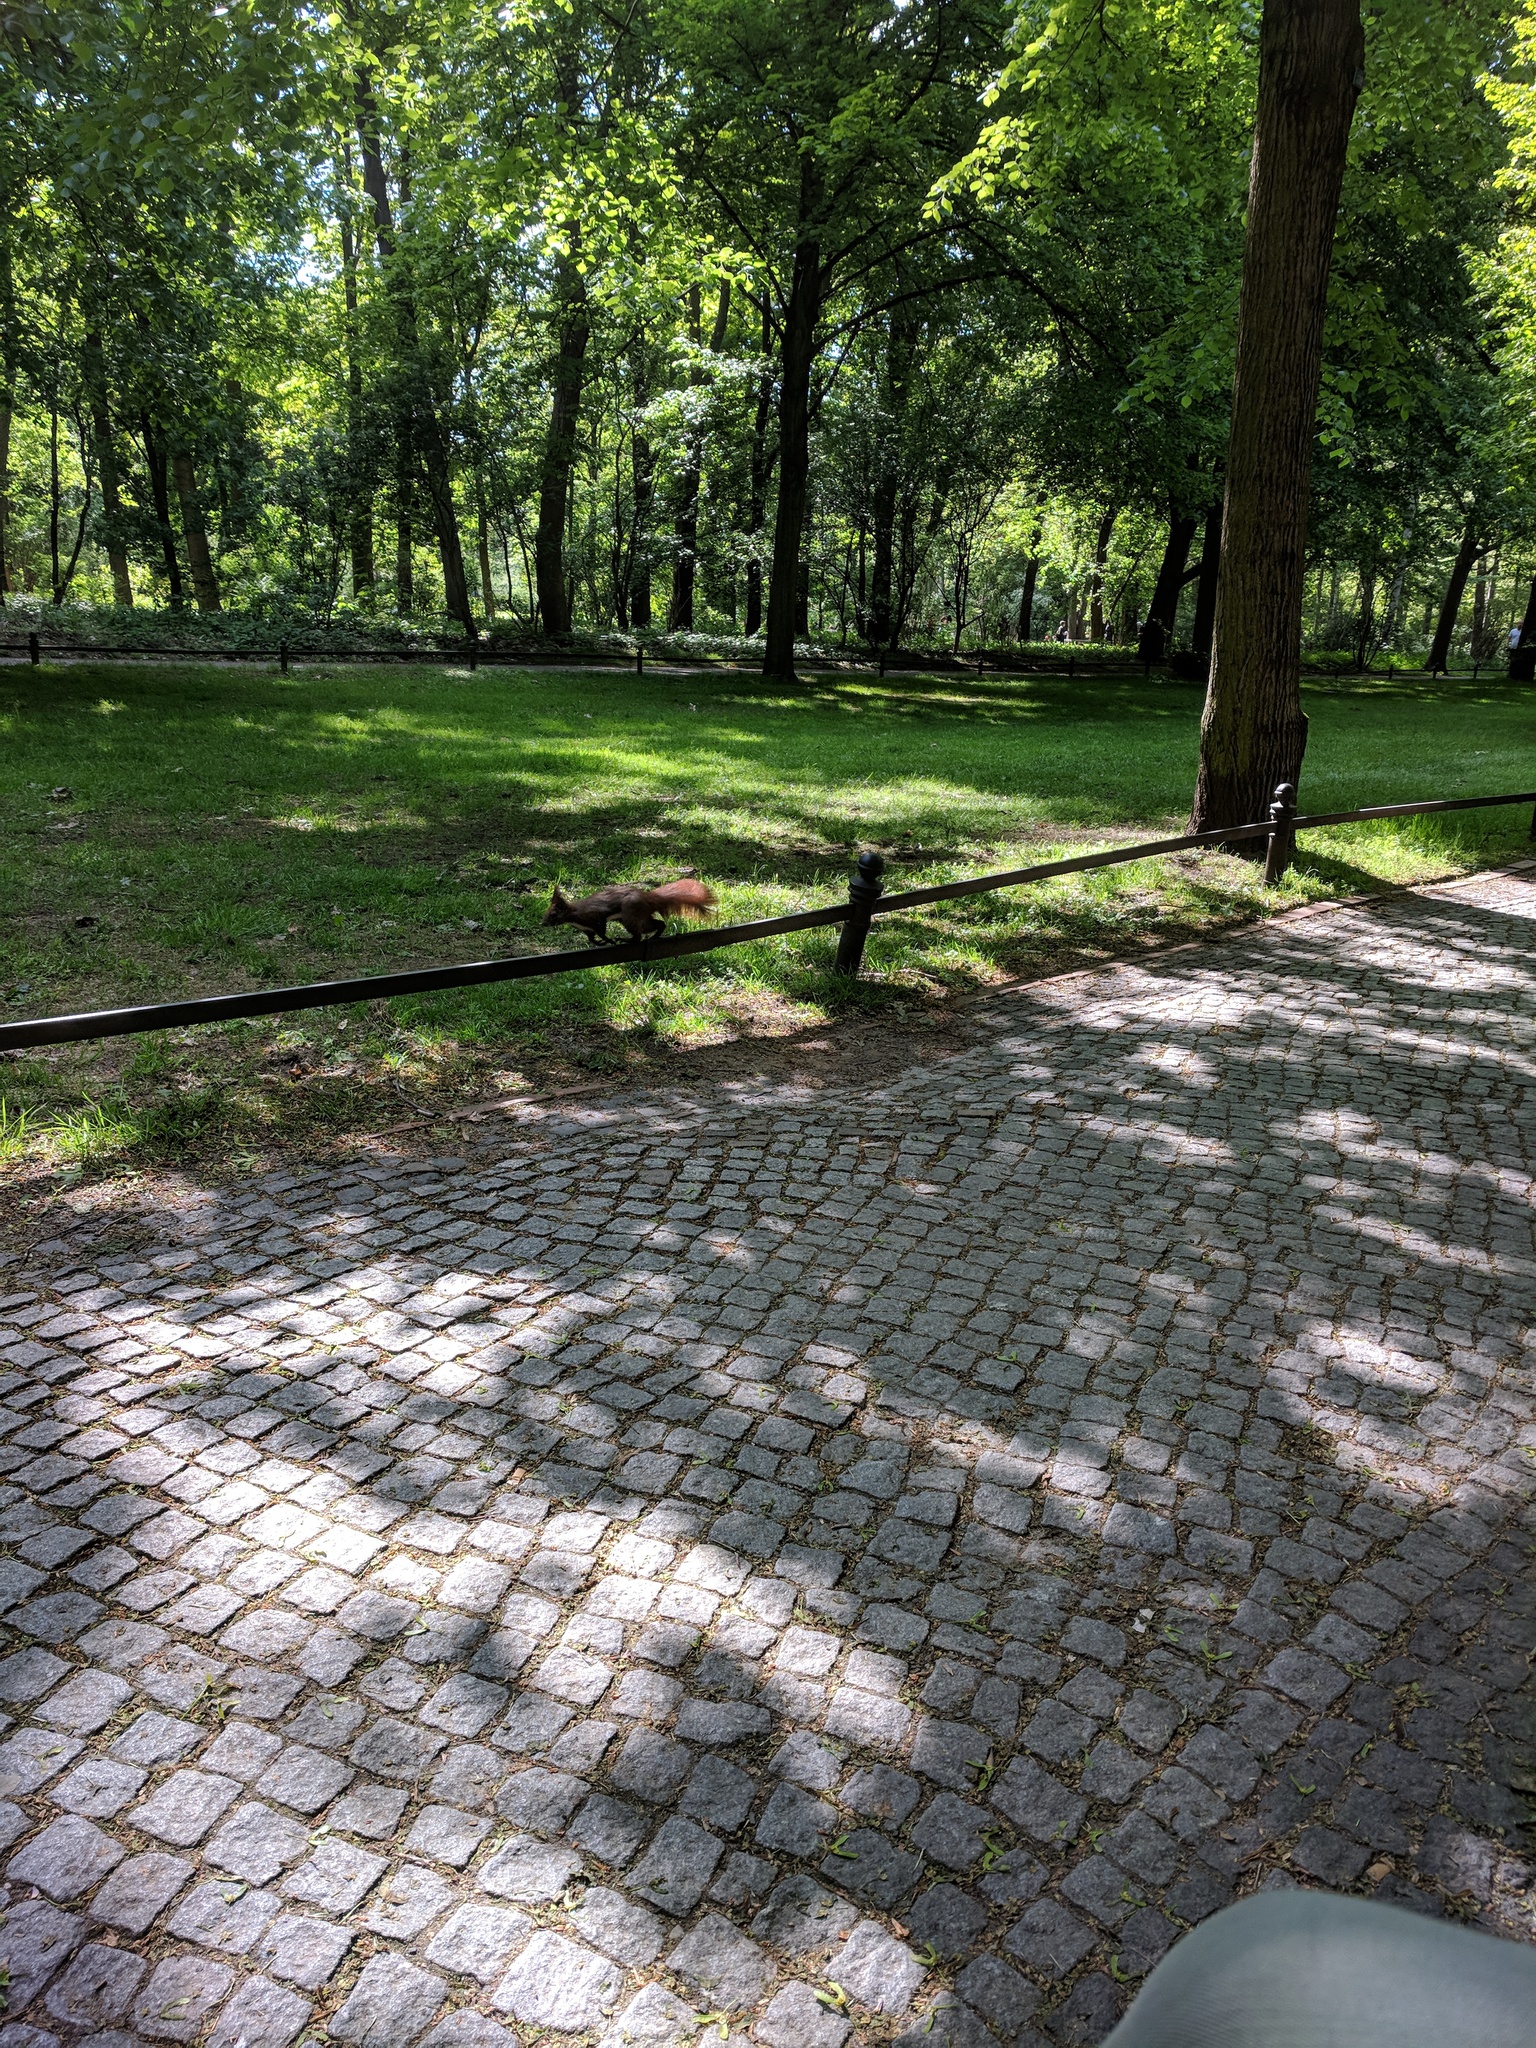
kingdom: Animalia
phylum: Chordata
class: Mammalia
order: Rodentia
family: Sciuridae
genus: Sciurus
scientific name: Sciurus vulgaris
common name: Eurasian red squirrel
